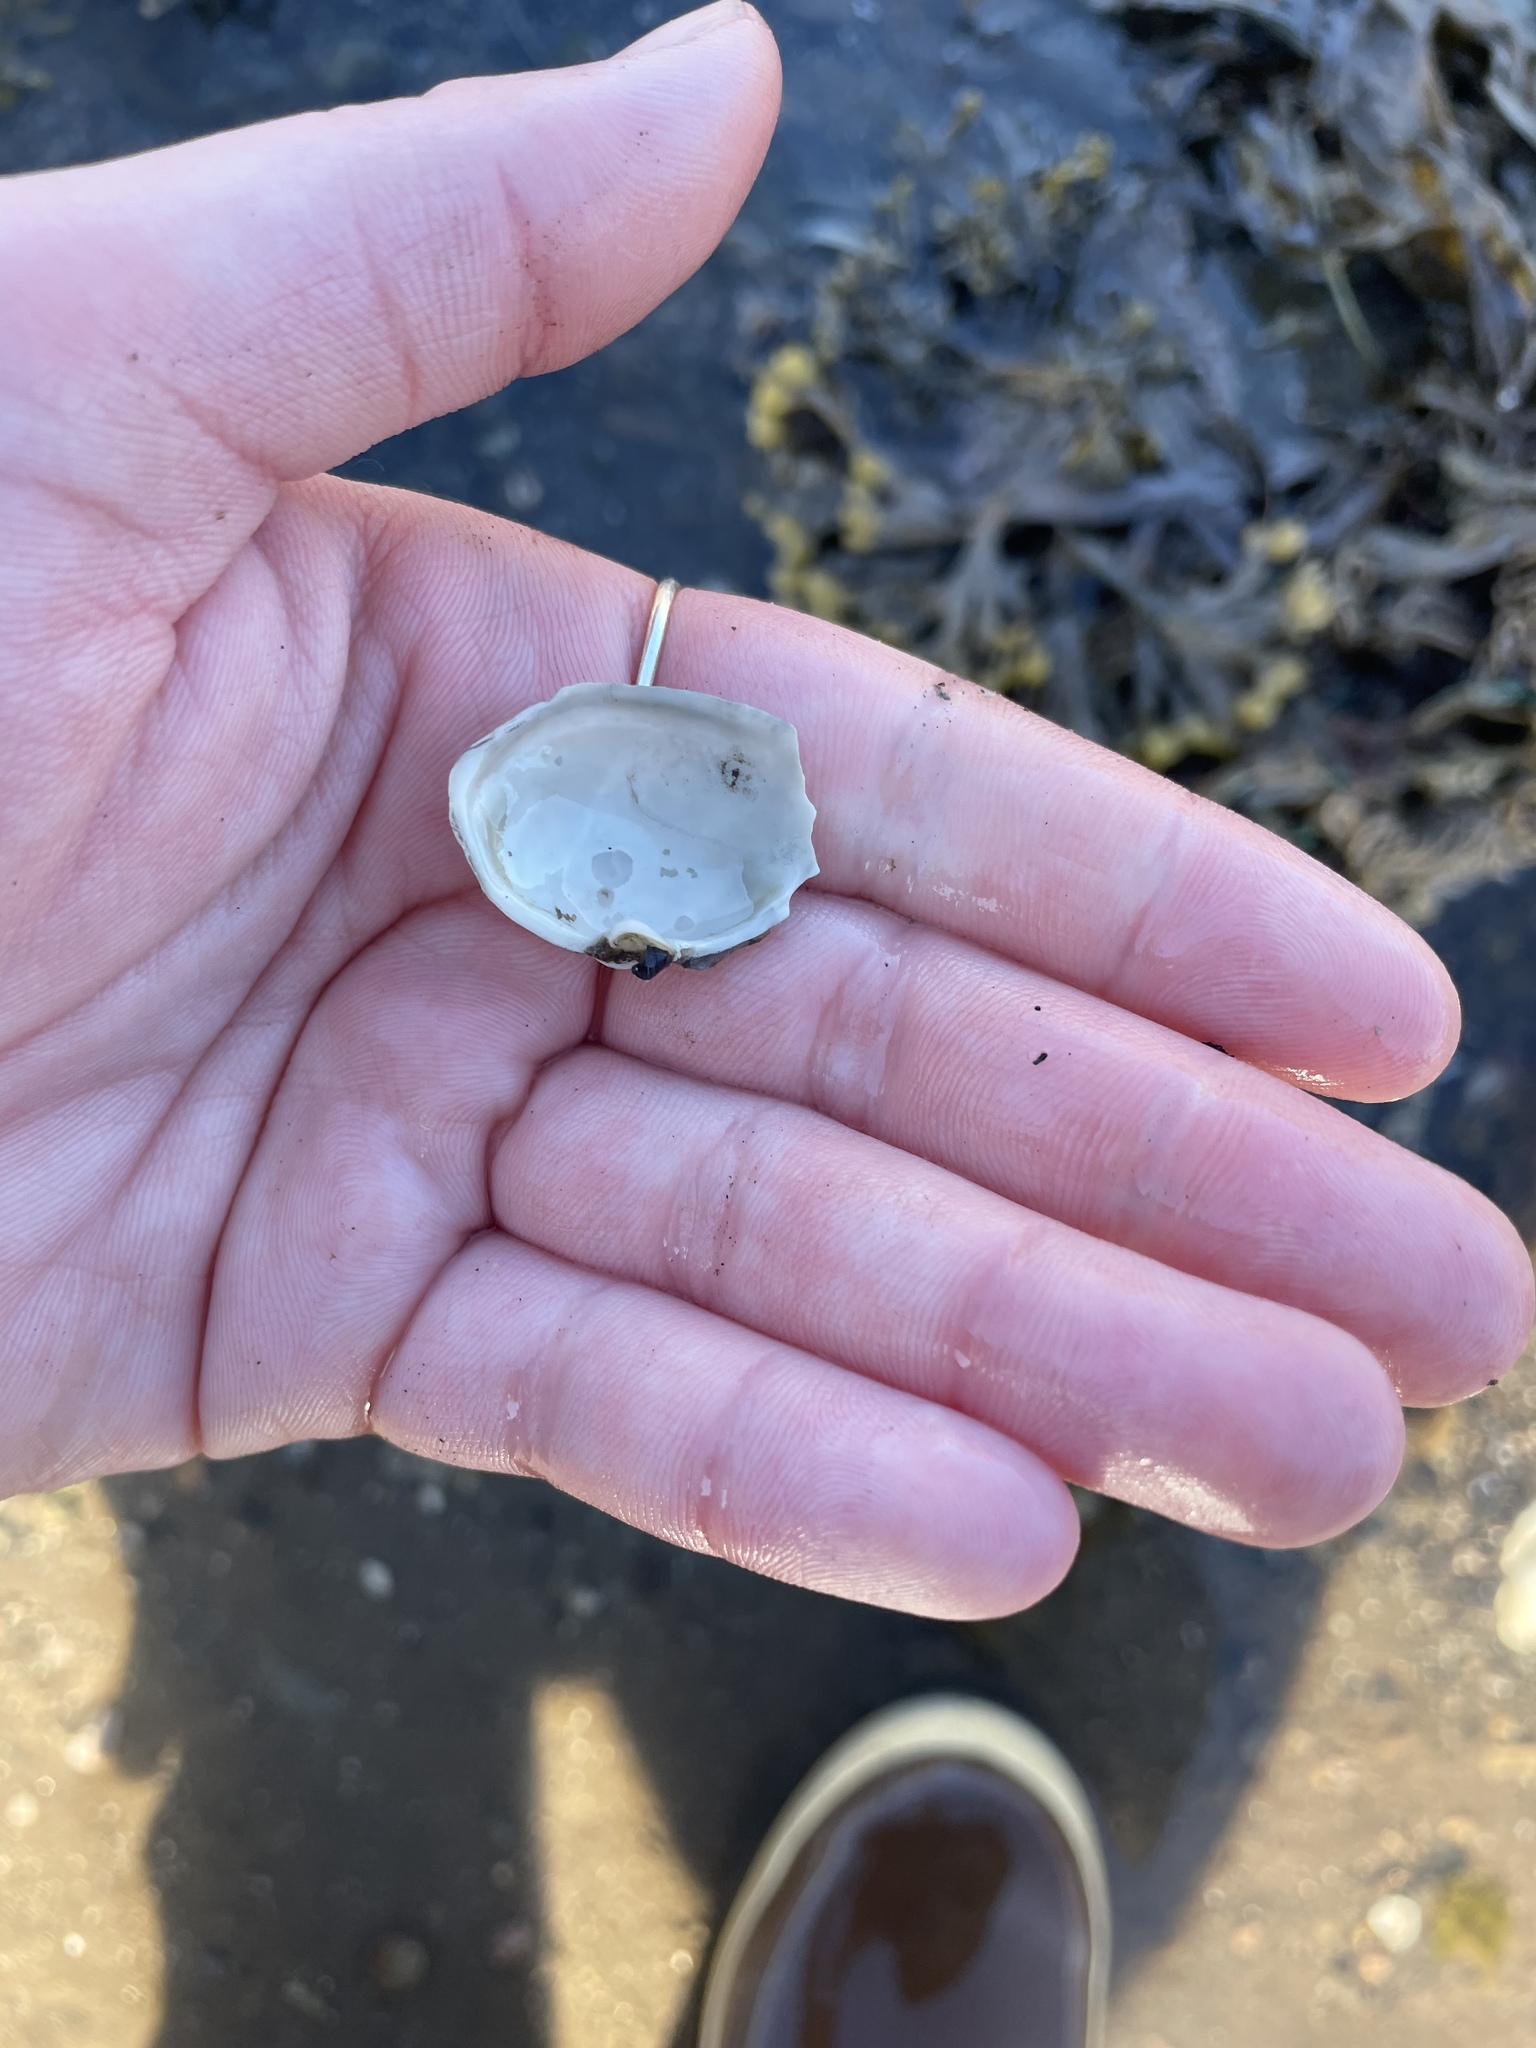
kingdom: Animalia
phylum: Mollusca
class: Bivalvia
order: Myida
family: Myidae
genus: Mya
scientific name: Mya arenaria
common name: Soft-shelled clam
